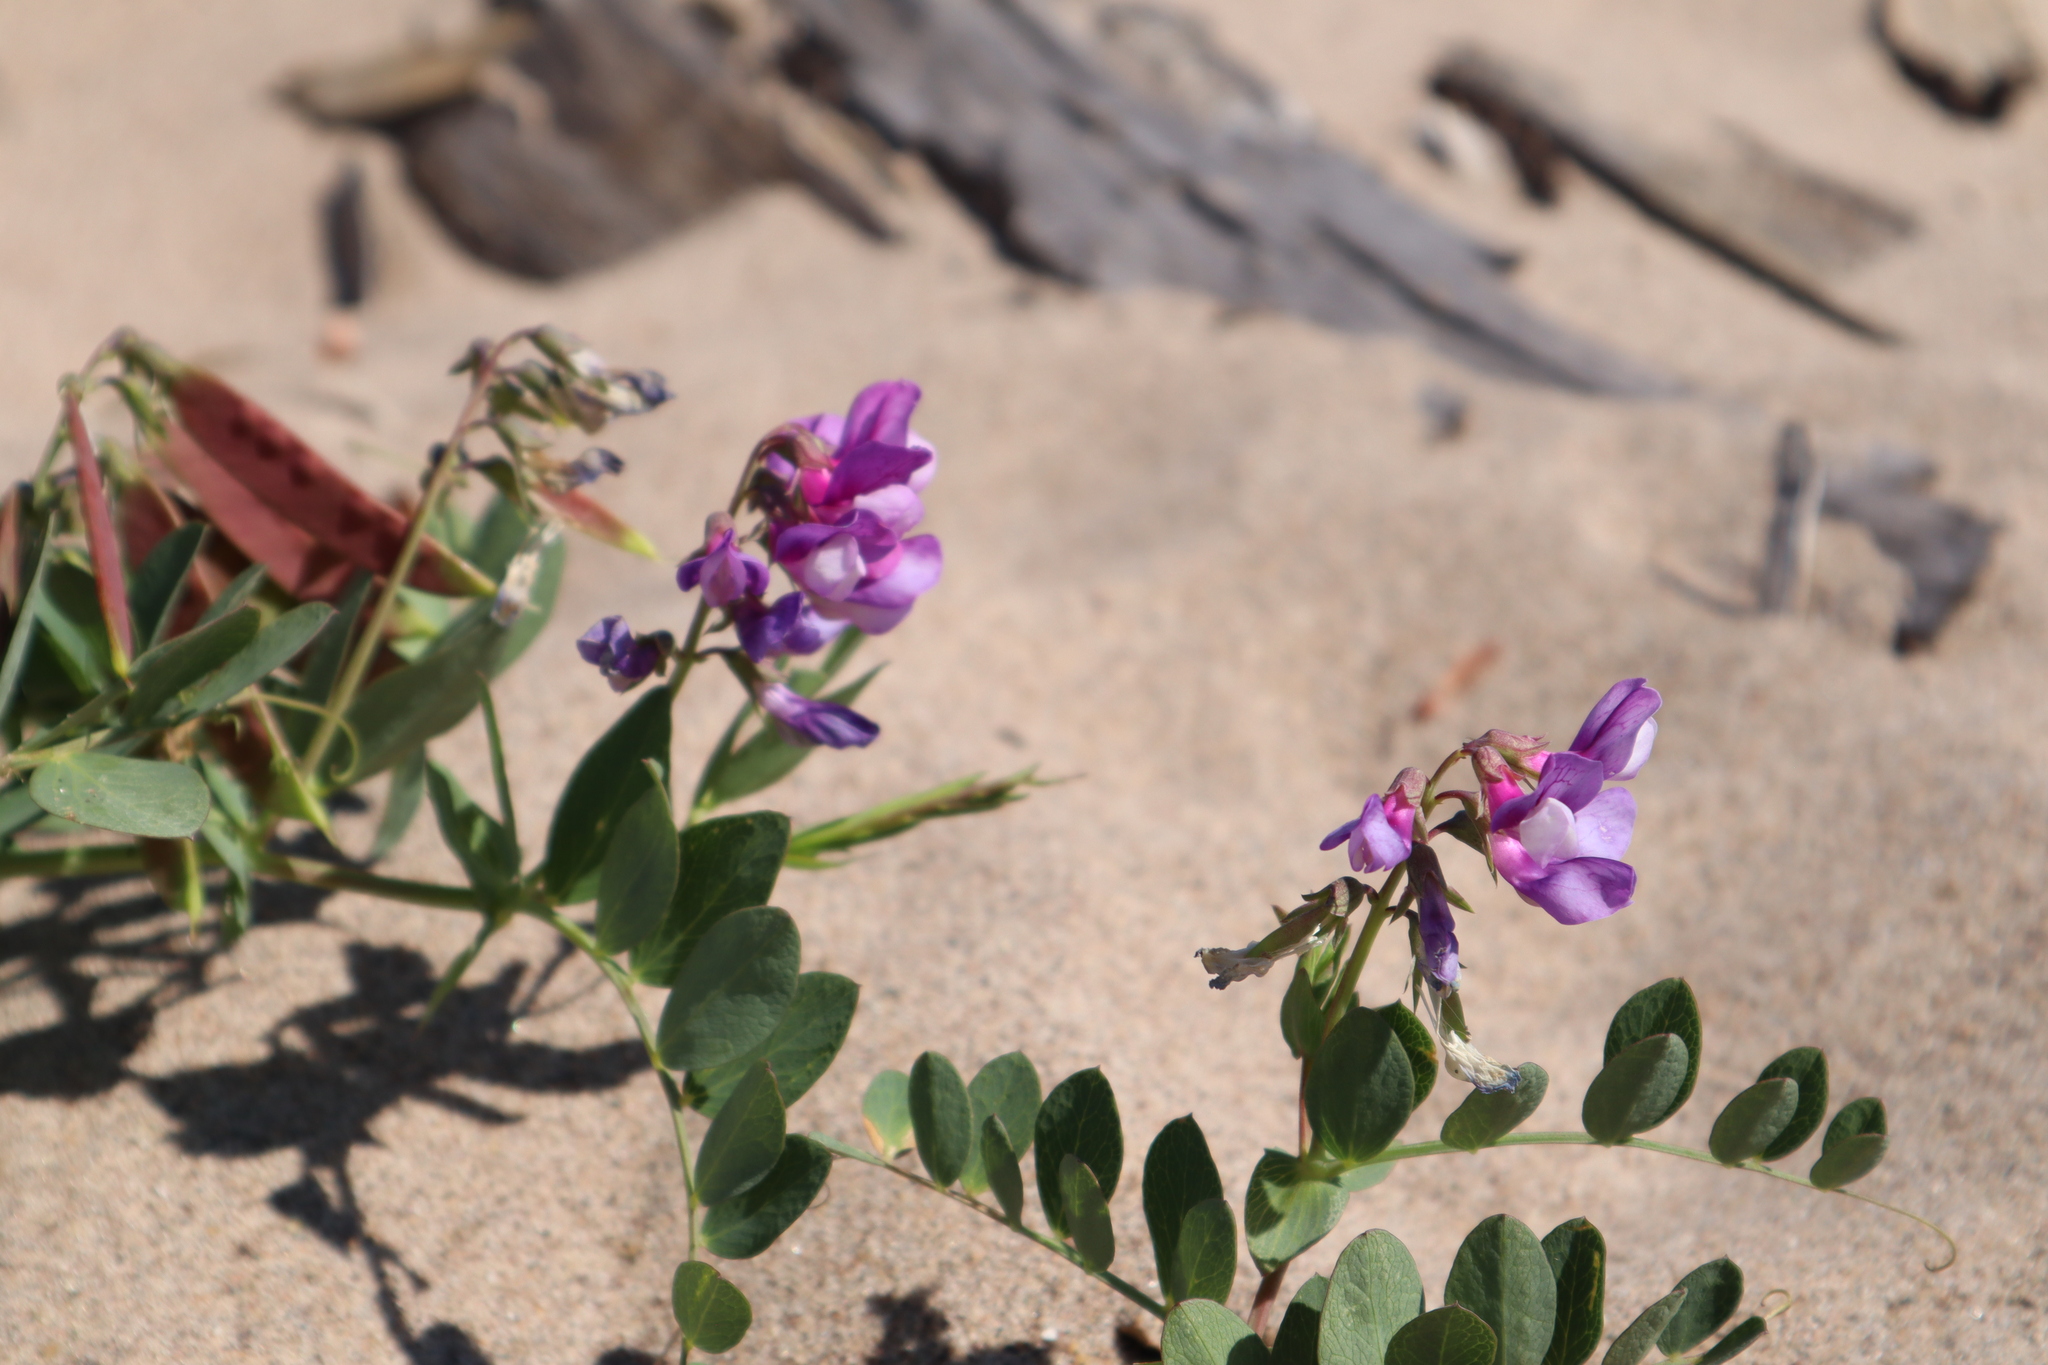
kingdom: Plantae
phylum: Tracheophyta
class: Magnoliopsida
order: Fabales
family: Fabaceae
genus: Lathyrus
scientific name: Lathyrus japonicus
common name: Sea pea
